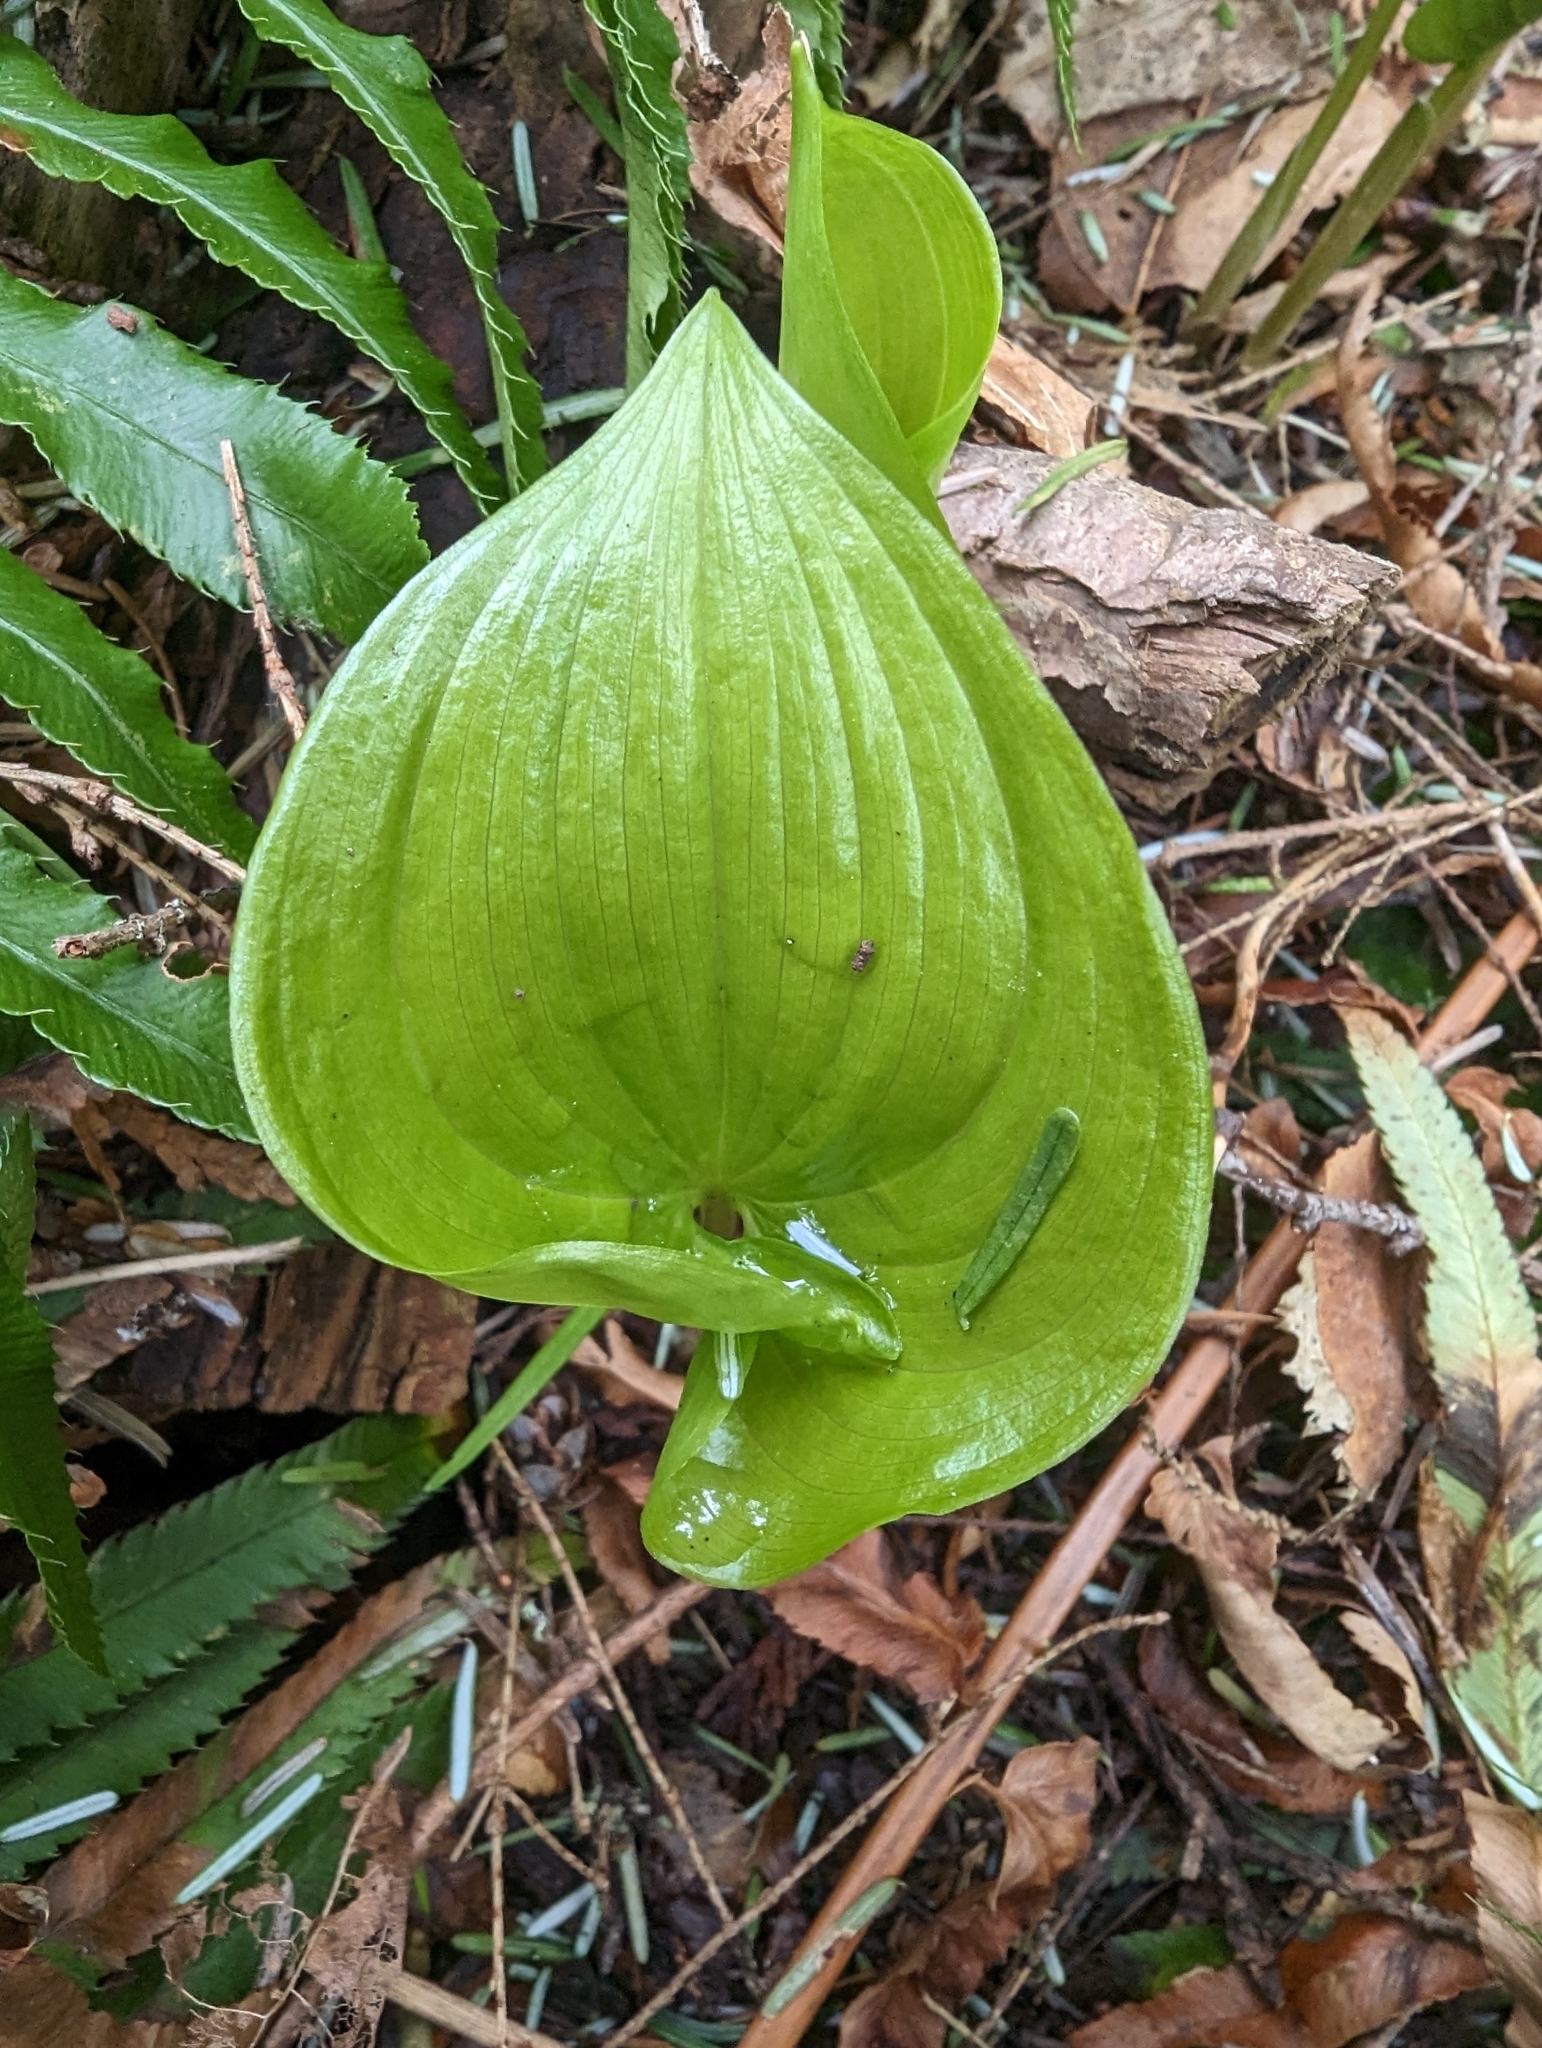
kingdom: Plantae
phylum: Tracheophyta
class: Liliopsida
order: Asparagales
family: Asparagaceae
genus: Maianthemum
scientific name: Maianthemum dilatatum
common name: False lily-of-the-valley
